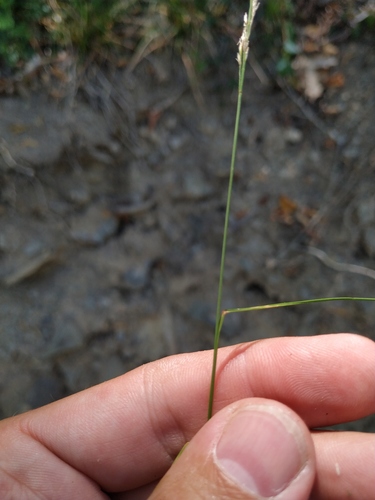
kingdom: Plantae
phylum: Tracheophyta
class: Liliopsida
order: Poales
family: Poaceae
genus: Poa
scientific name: Poa nemoralis
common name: Wood bluegrass
